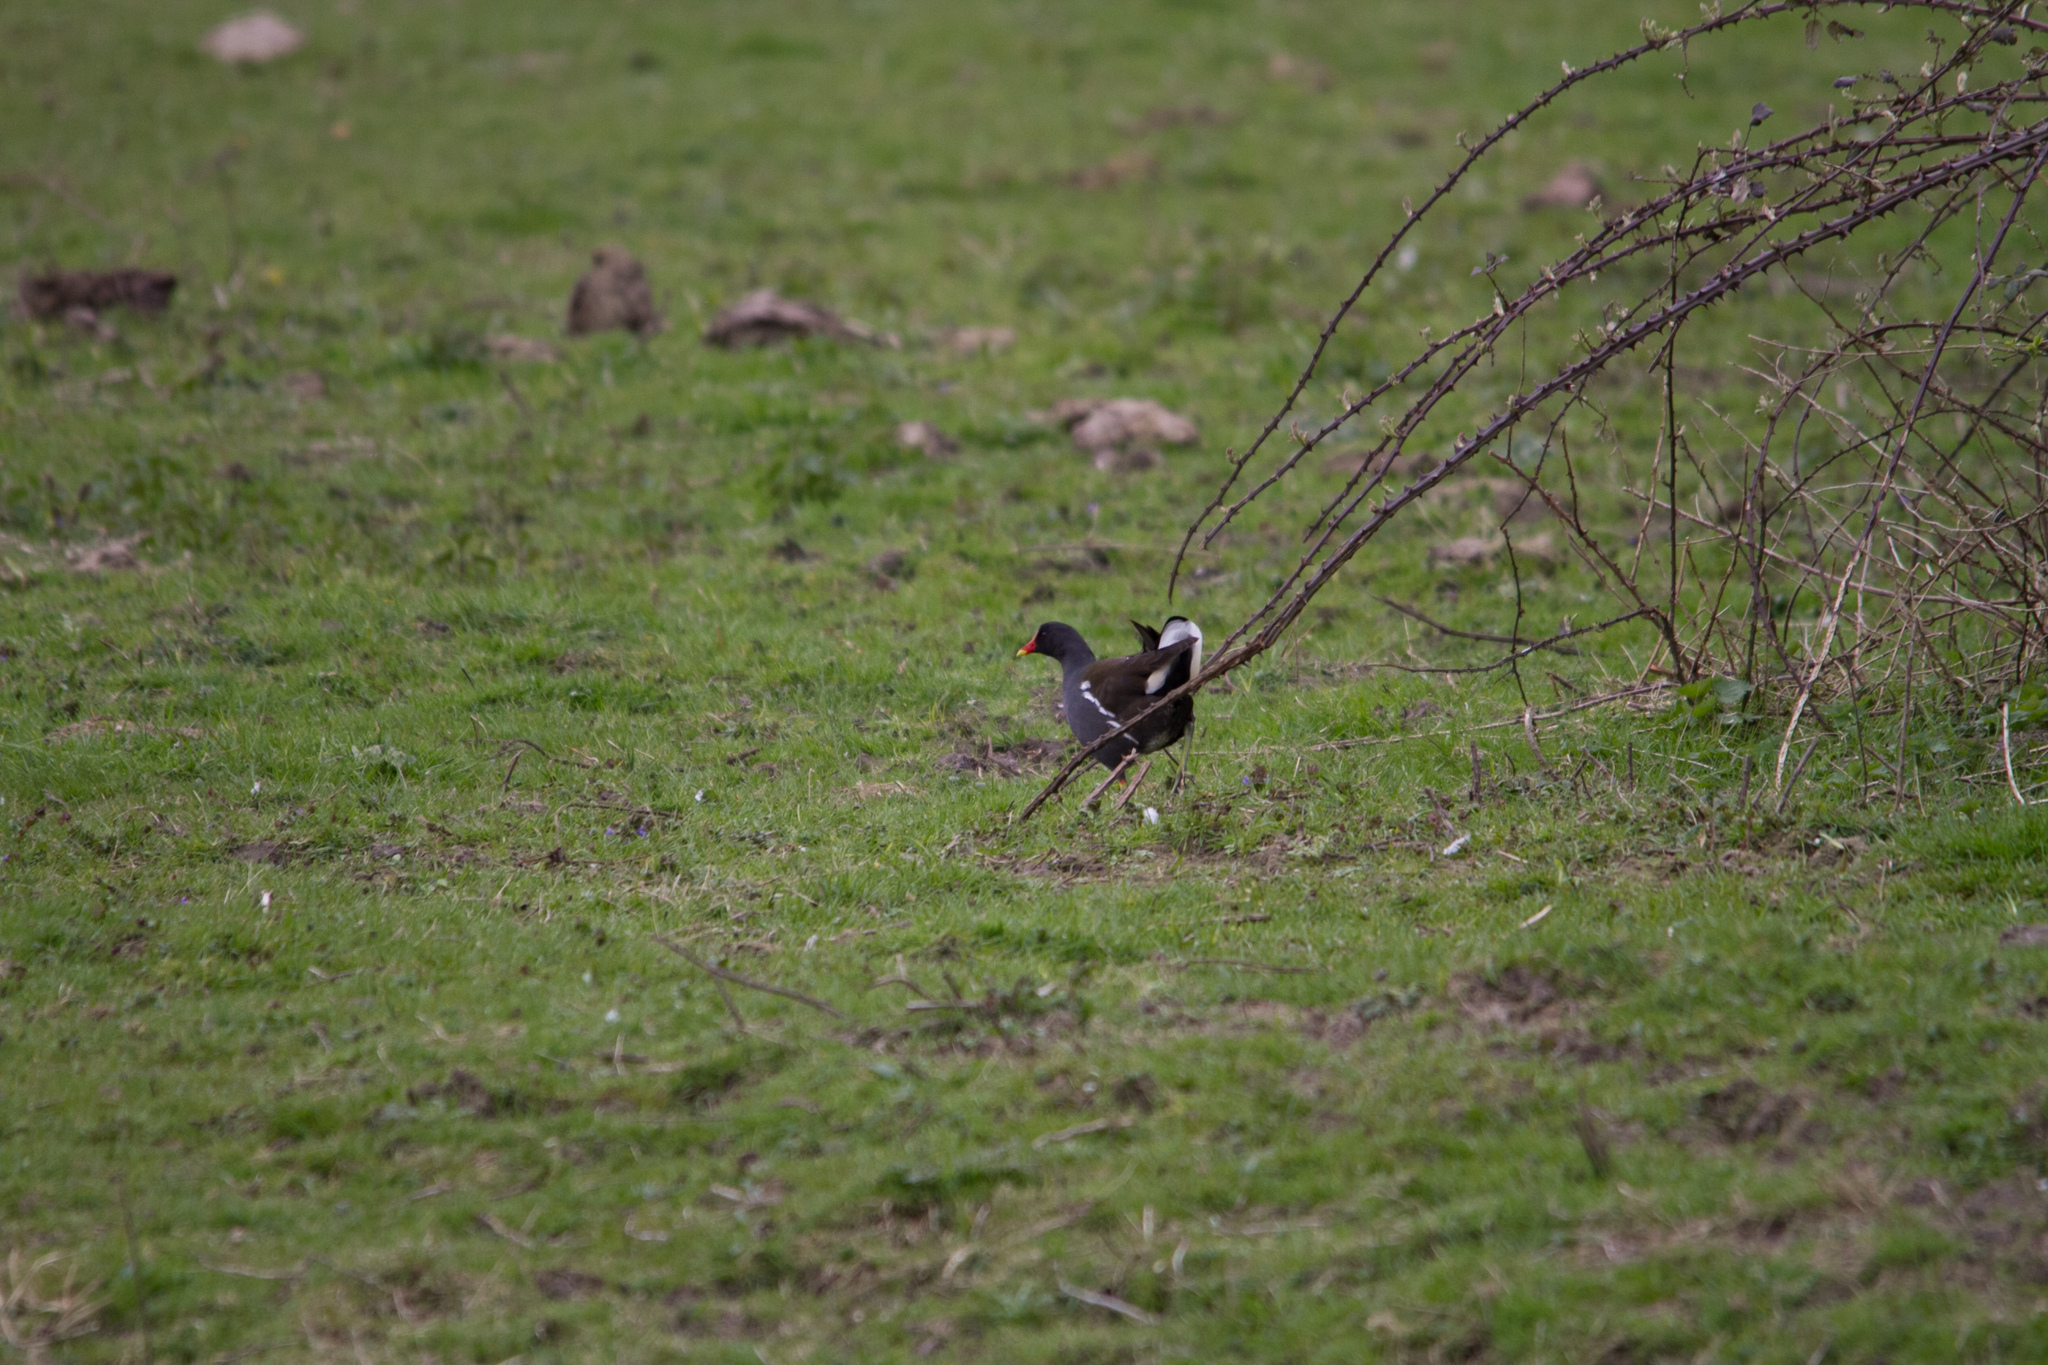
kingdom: Animalia
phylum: Chordata
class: Aves
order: Gruiformes
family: Rallidae
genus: Gallinula
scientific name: Gallinula chloropus
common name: Common moorhen
